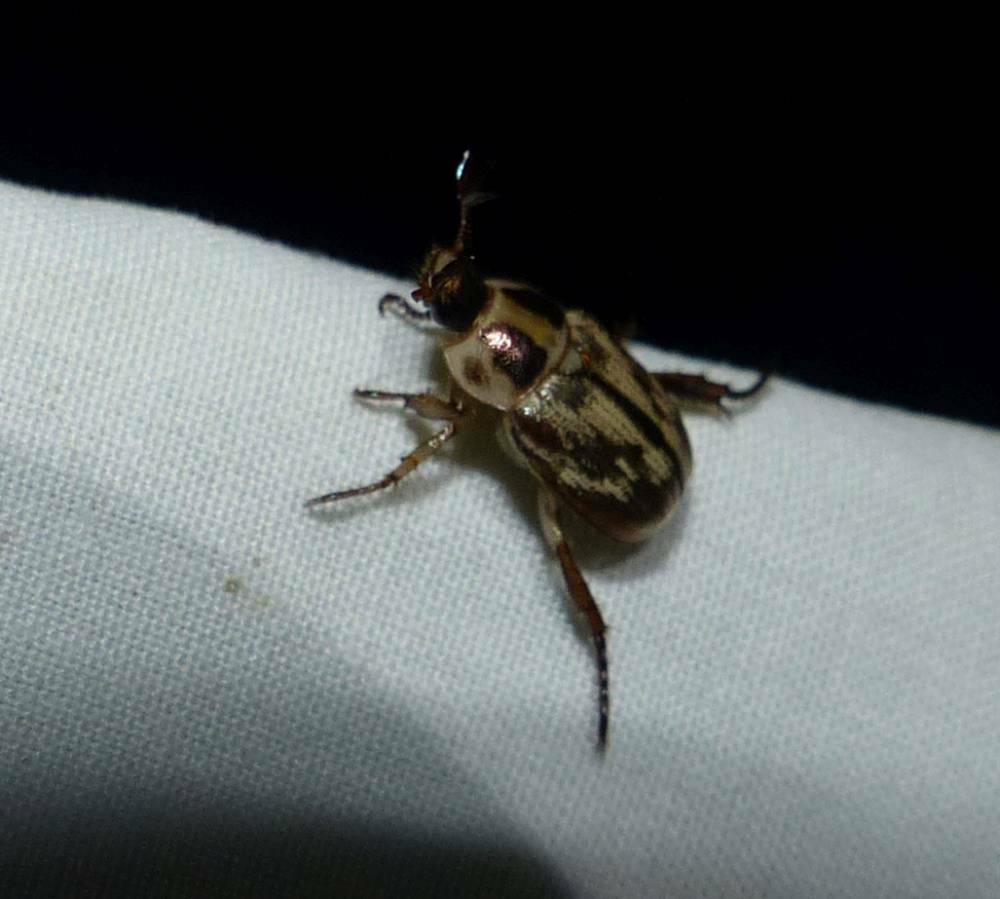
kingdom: Animalia
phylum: Arthropoda
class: Insecta
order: Coleoptera
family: Scarabaeidae
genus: Exomala
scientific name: Exomala orientalis
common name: Oriental beetle
